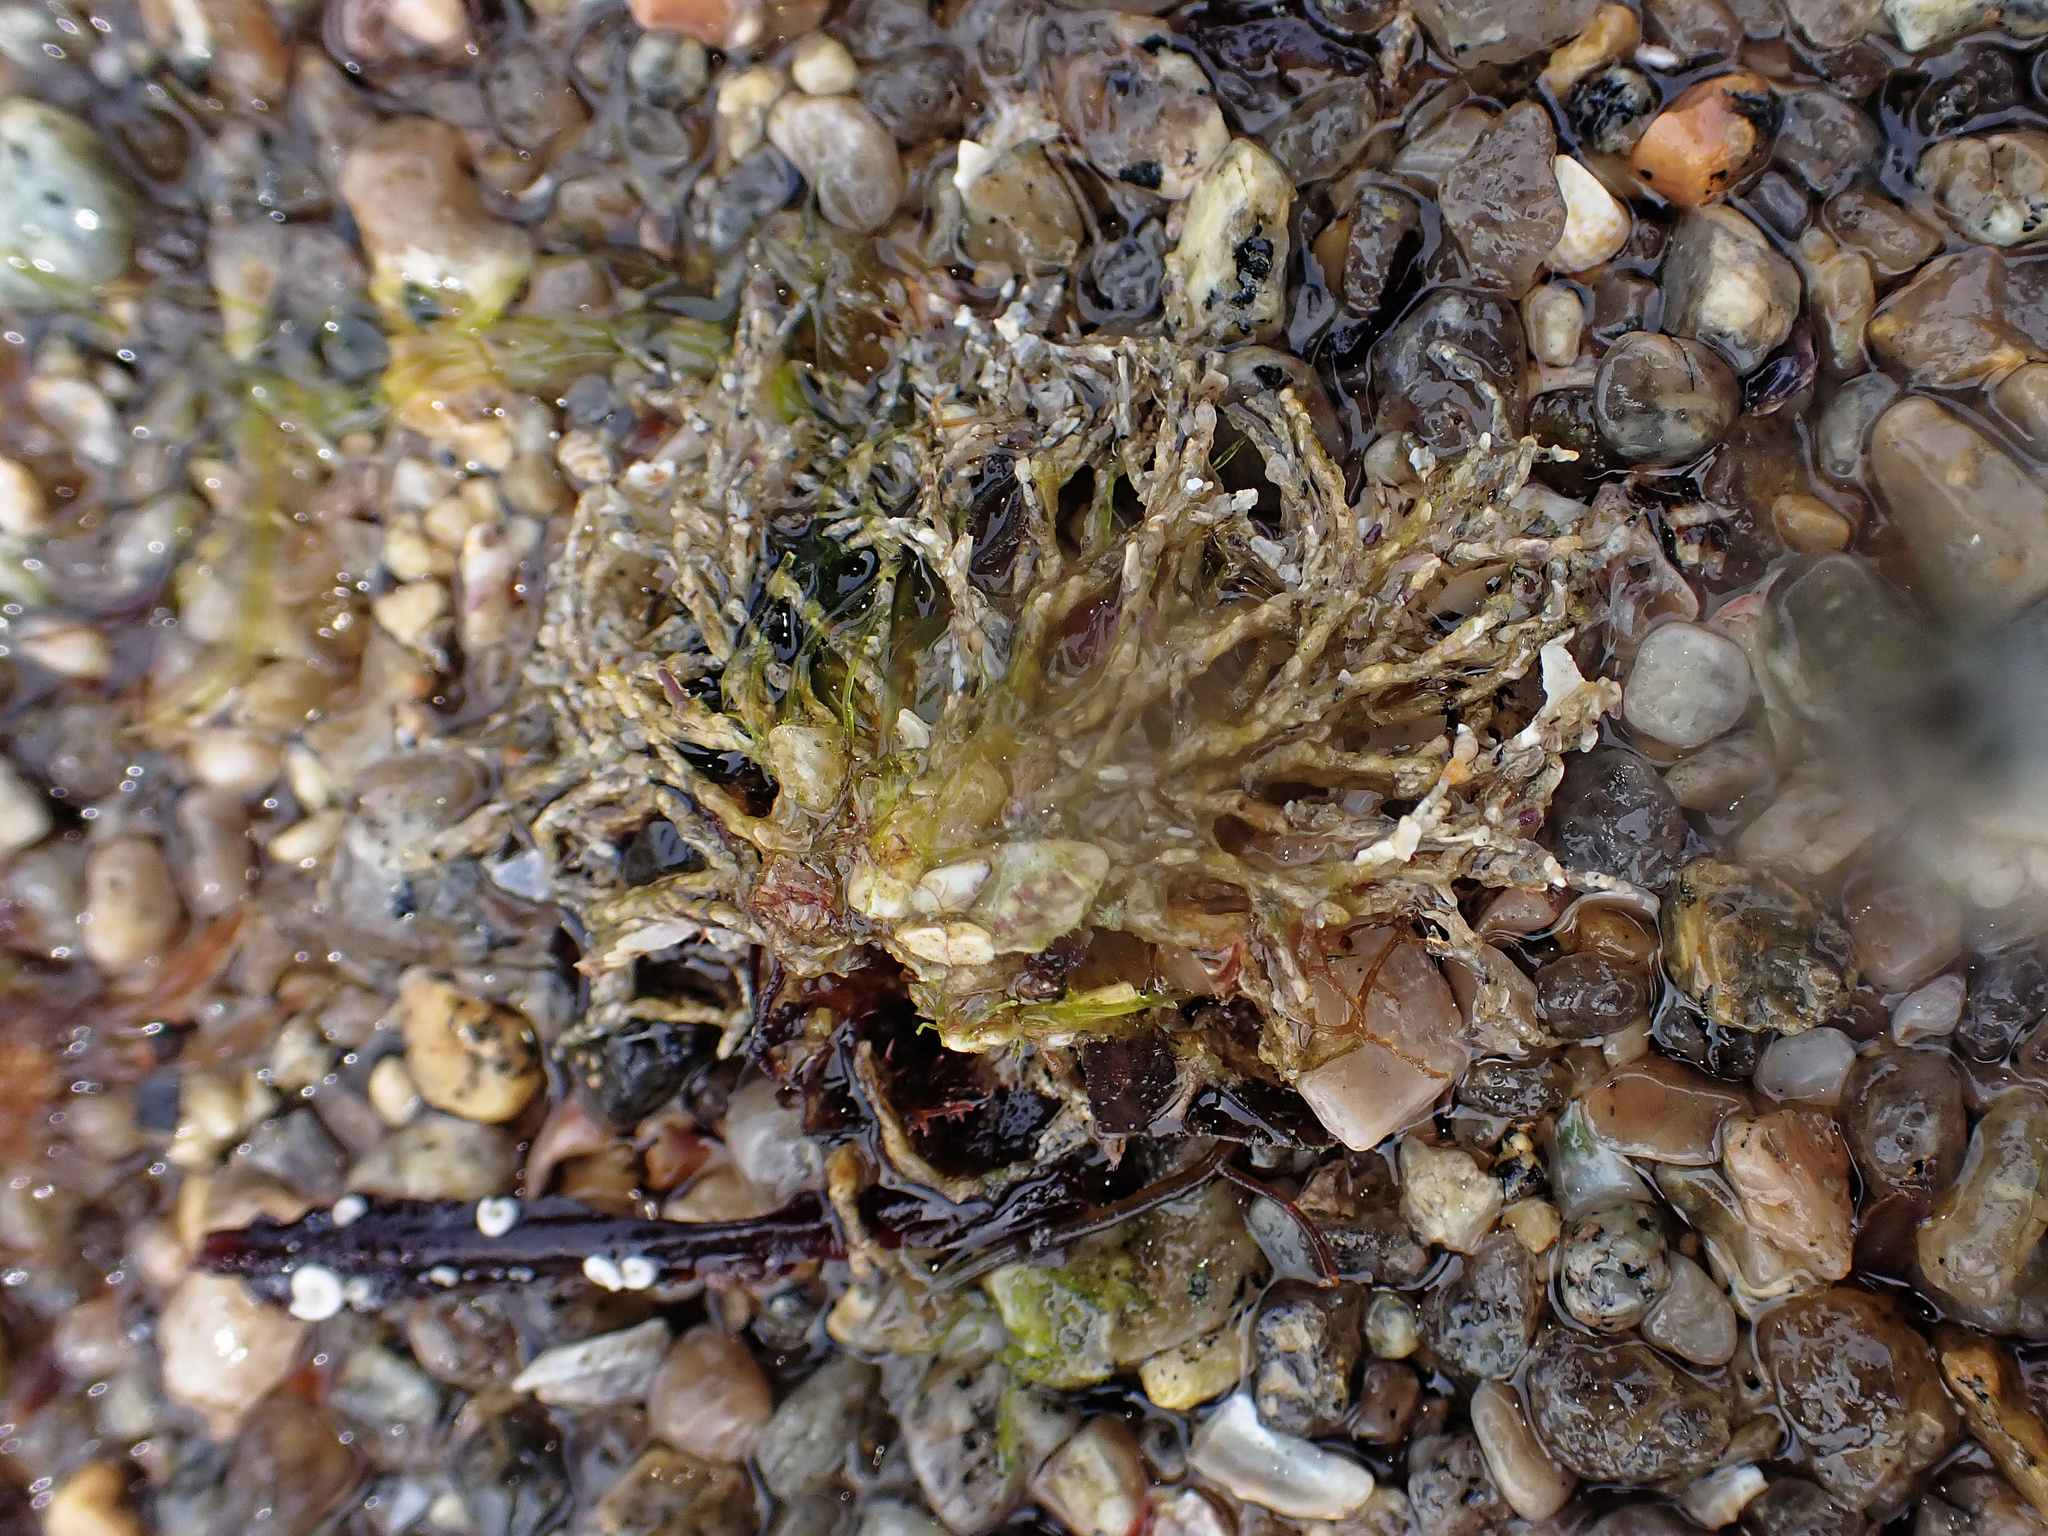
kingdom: Animalia
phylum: Annelida
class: Polychaeta
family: Terebellidae
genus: Lanice
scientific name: Lanice conchilega
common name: Sand mason
